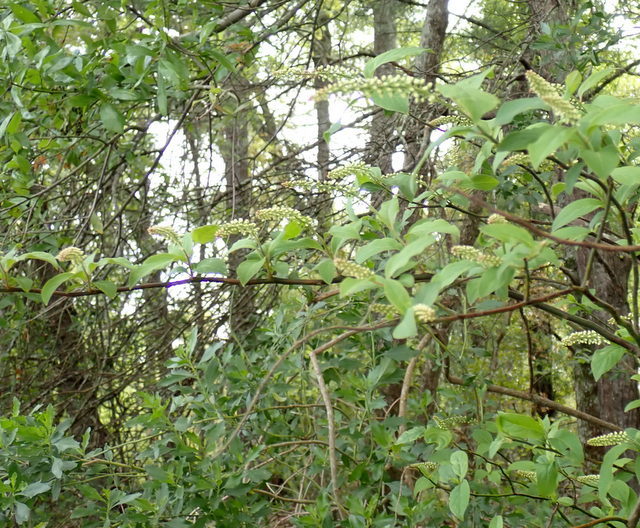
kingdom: Plantae
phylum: Tracheophyta
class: Magnoliopsida
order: Saxifragales
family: Iteaceae
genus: Itea
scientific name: Itea virginica
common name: Sweetspire
